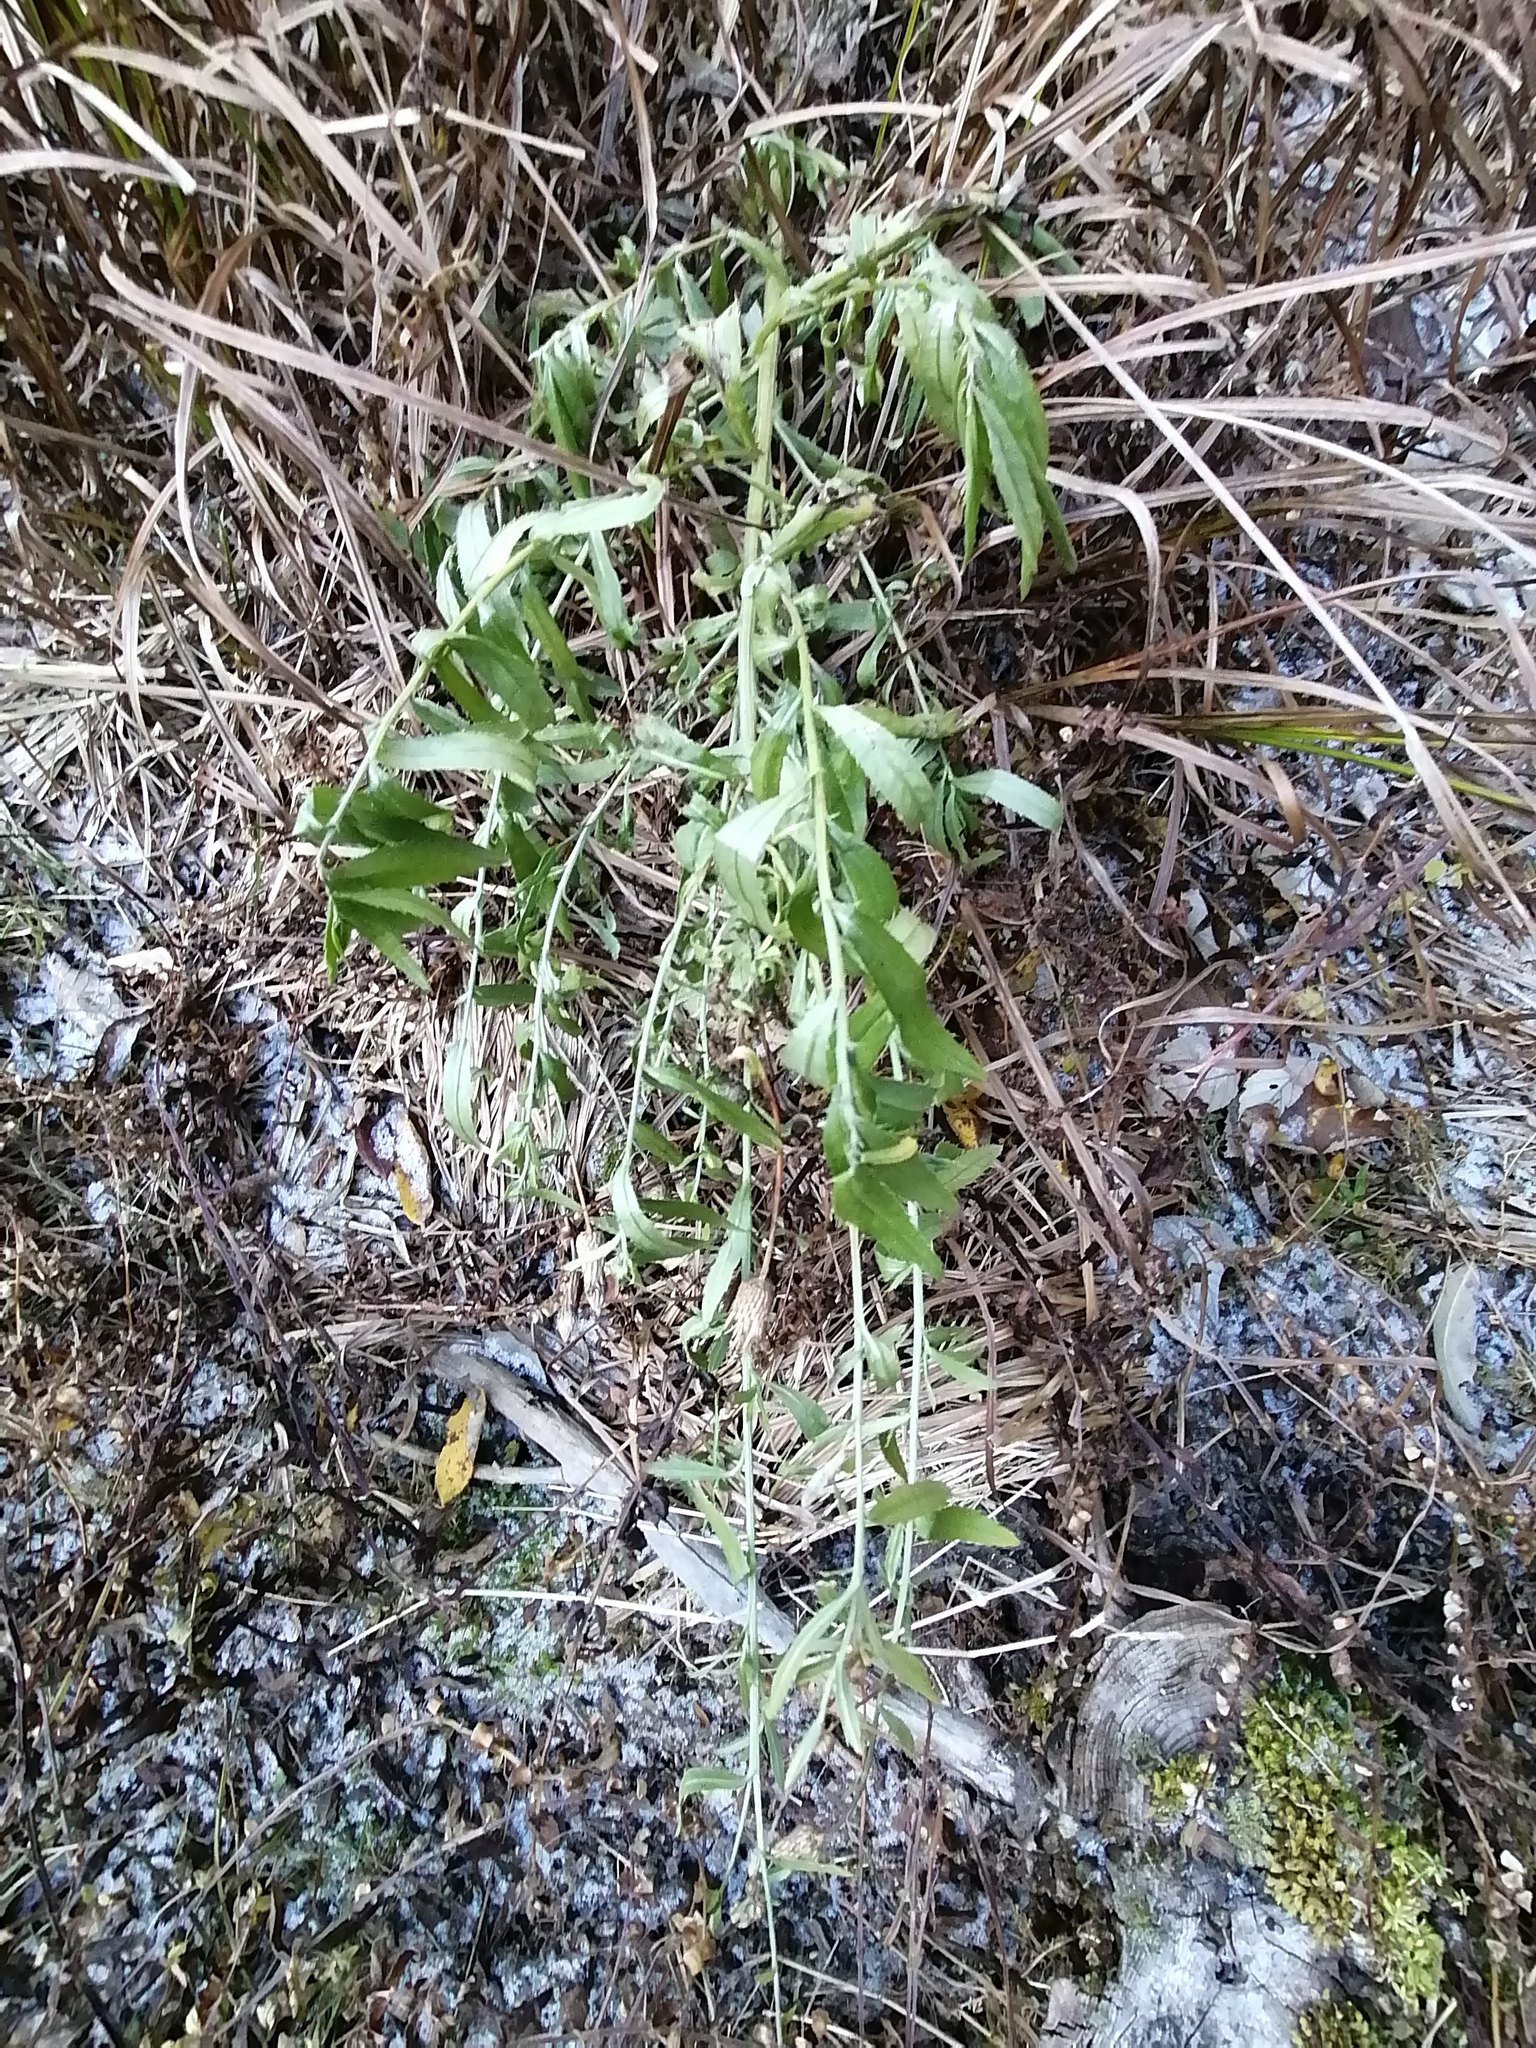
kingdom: Plantae
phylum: Tracheophyta
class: Magnoliopsida
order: Asterales
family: Asteraceae
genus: Cirsium
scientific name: Cirsium arvense
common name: Creeping thistle
